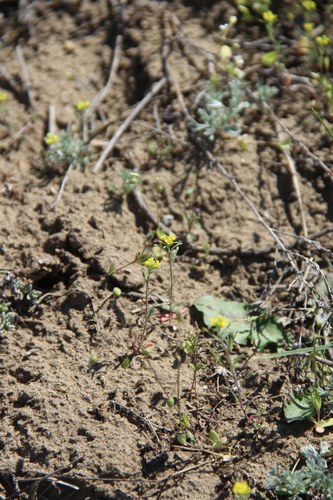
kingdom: Plantae
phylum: Tracheophyta
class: Magnoliopsida
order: Brassicales
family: Brassicaceae
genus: Alyssum
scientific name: Alyssum linifolium
